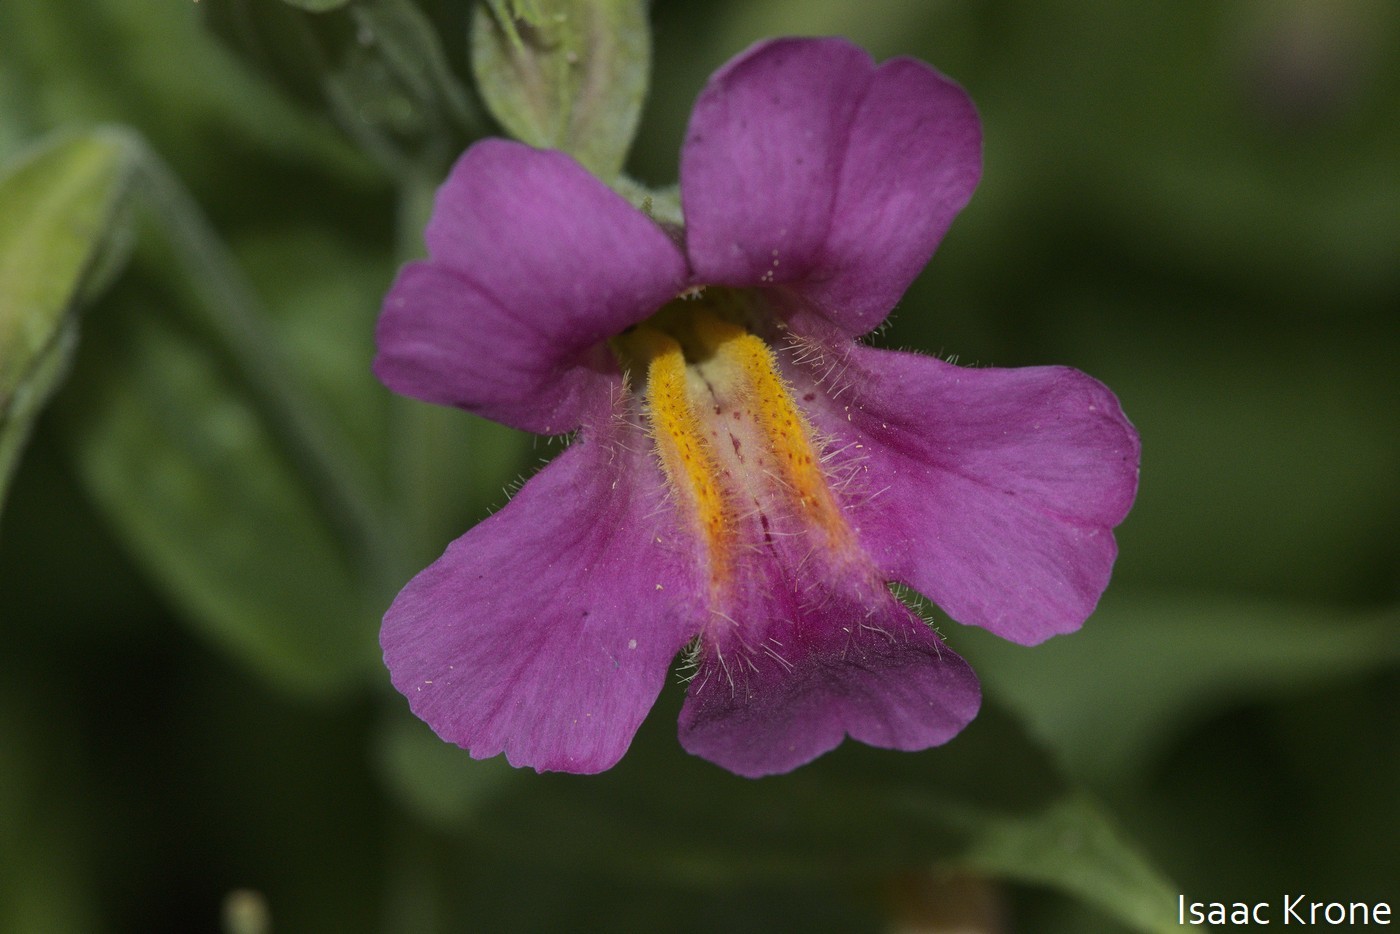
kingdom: Plantae
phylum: Tracheophyta
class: Magnoliopsida
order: Lamiales
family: Phrymaceae
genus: Erythranthe
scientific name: Erythranthe lewisii
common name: Lewis's monkey-flower
